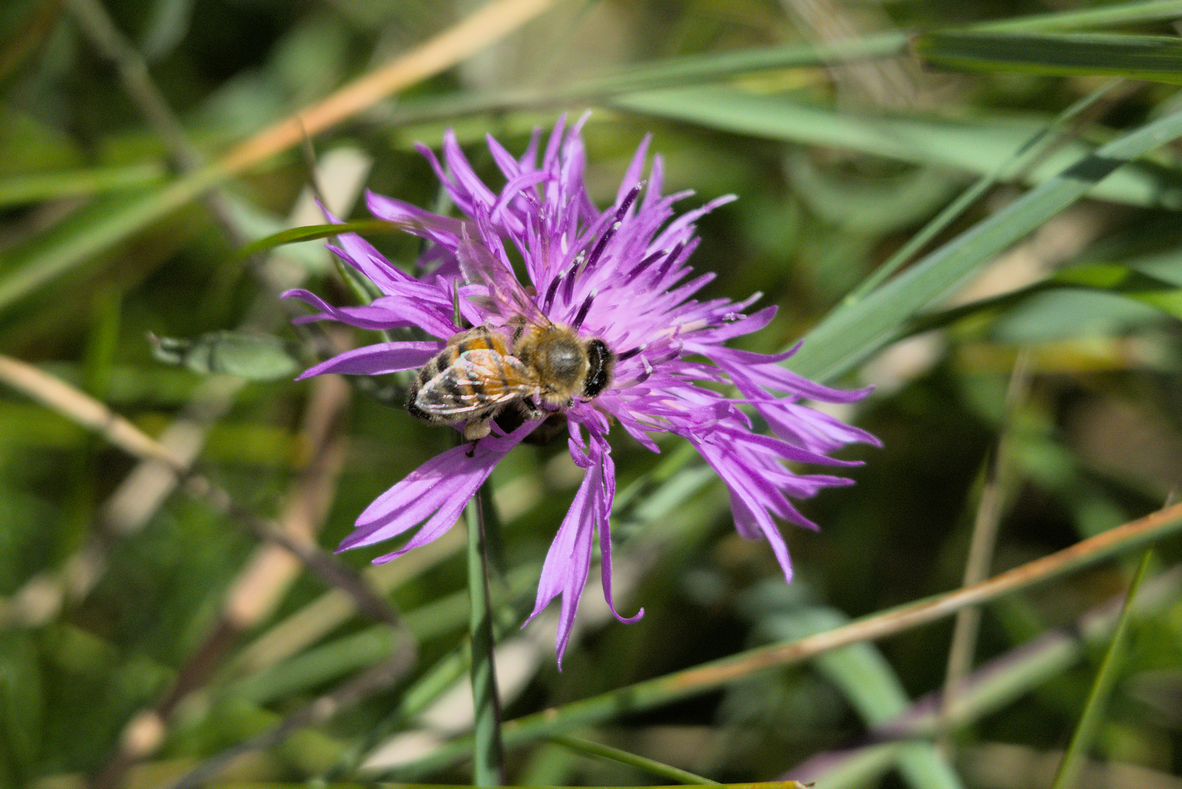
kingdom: Animalia
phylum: Arthropoda
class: Insecta
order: Hymenoptera
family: Apidae
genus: Apis
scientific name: Apis mellifera
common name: Honey bee
